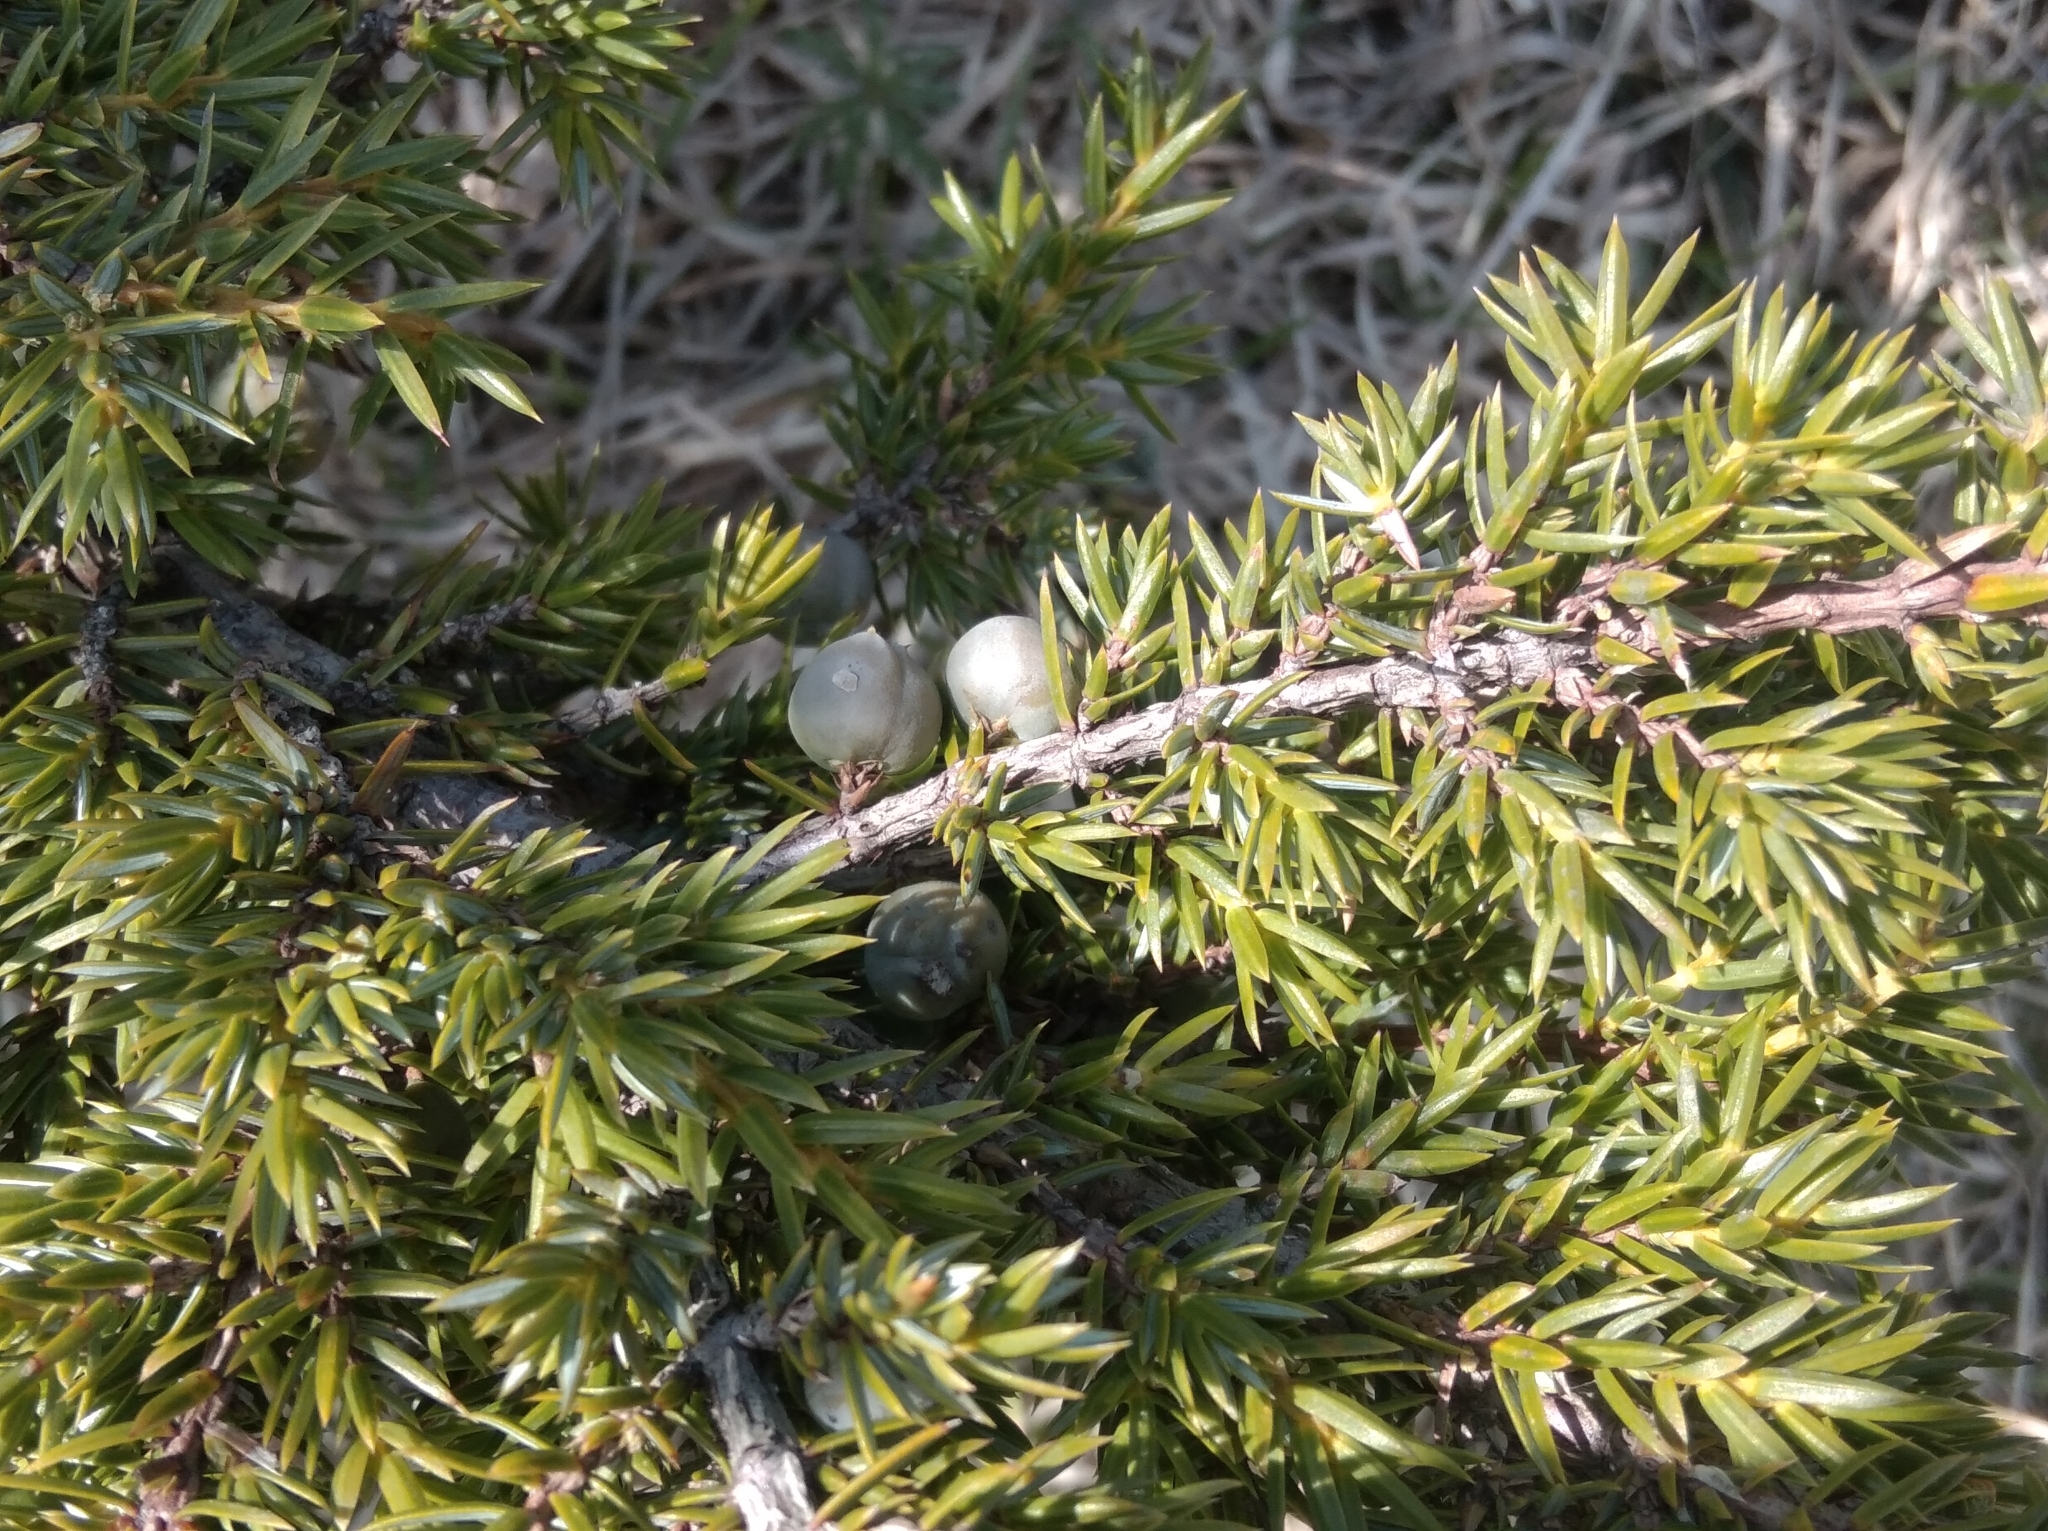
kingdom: Plantae
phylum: Tracheophyta
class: Pinopsida
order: Pinales
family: Cupressaceae
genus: Juniperus
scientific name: Juniperus communis
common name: Common juniper
